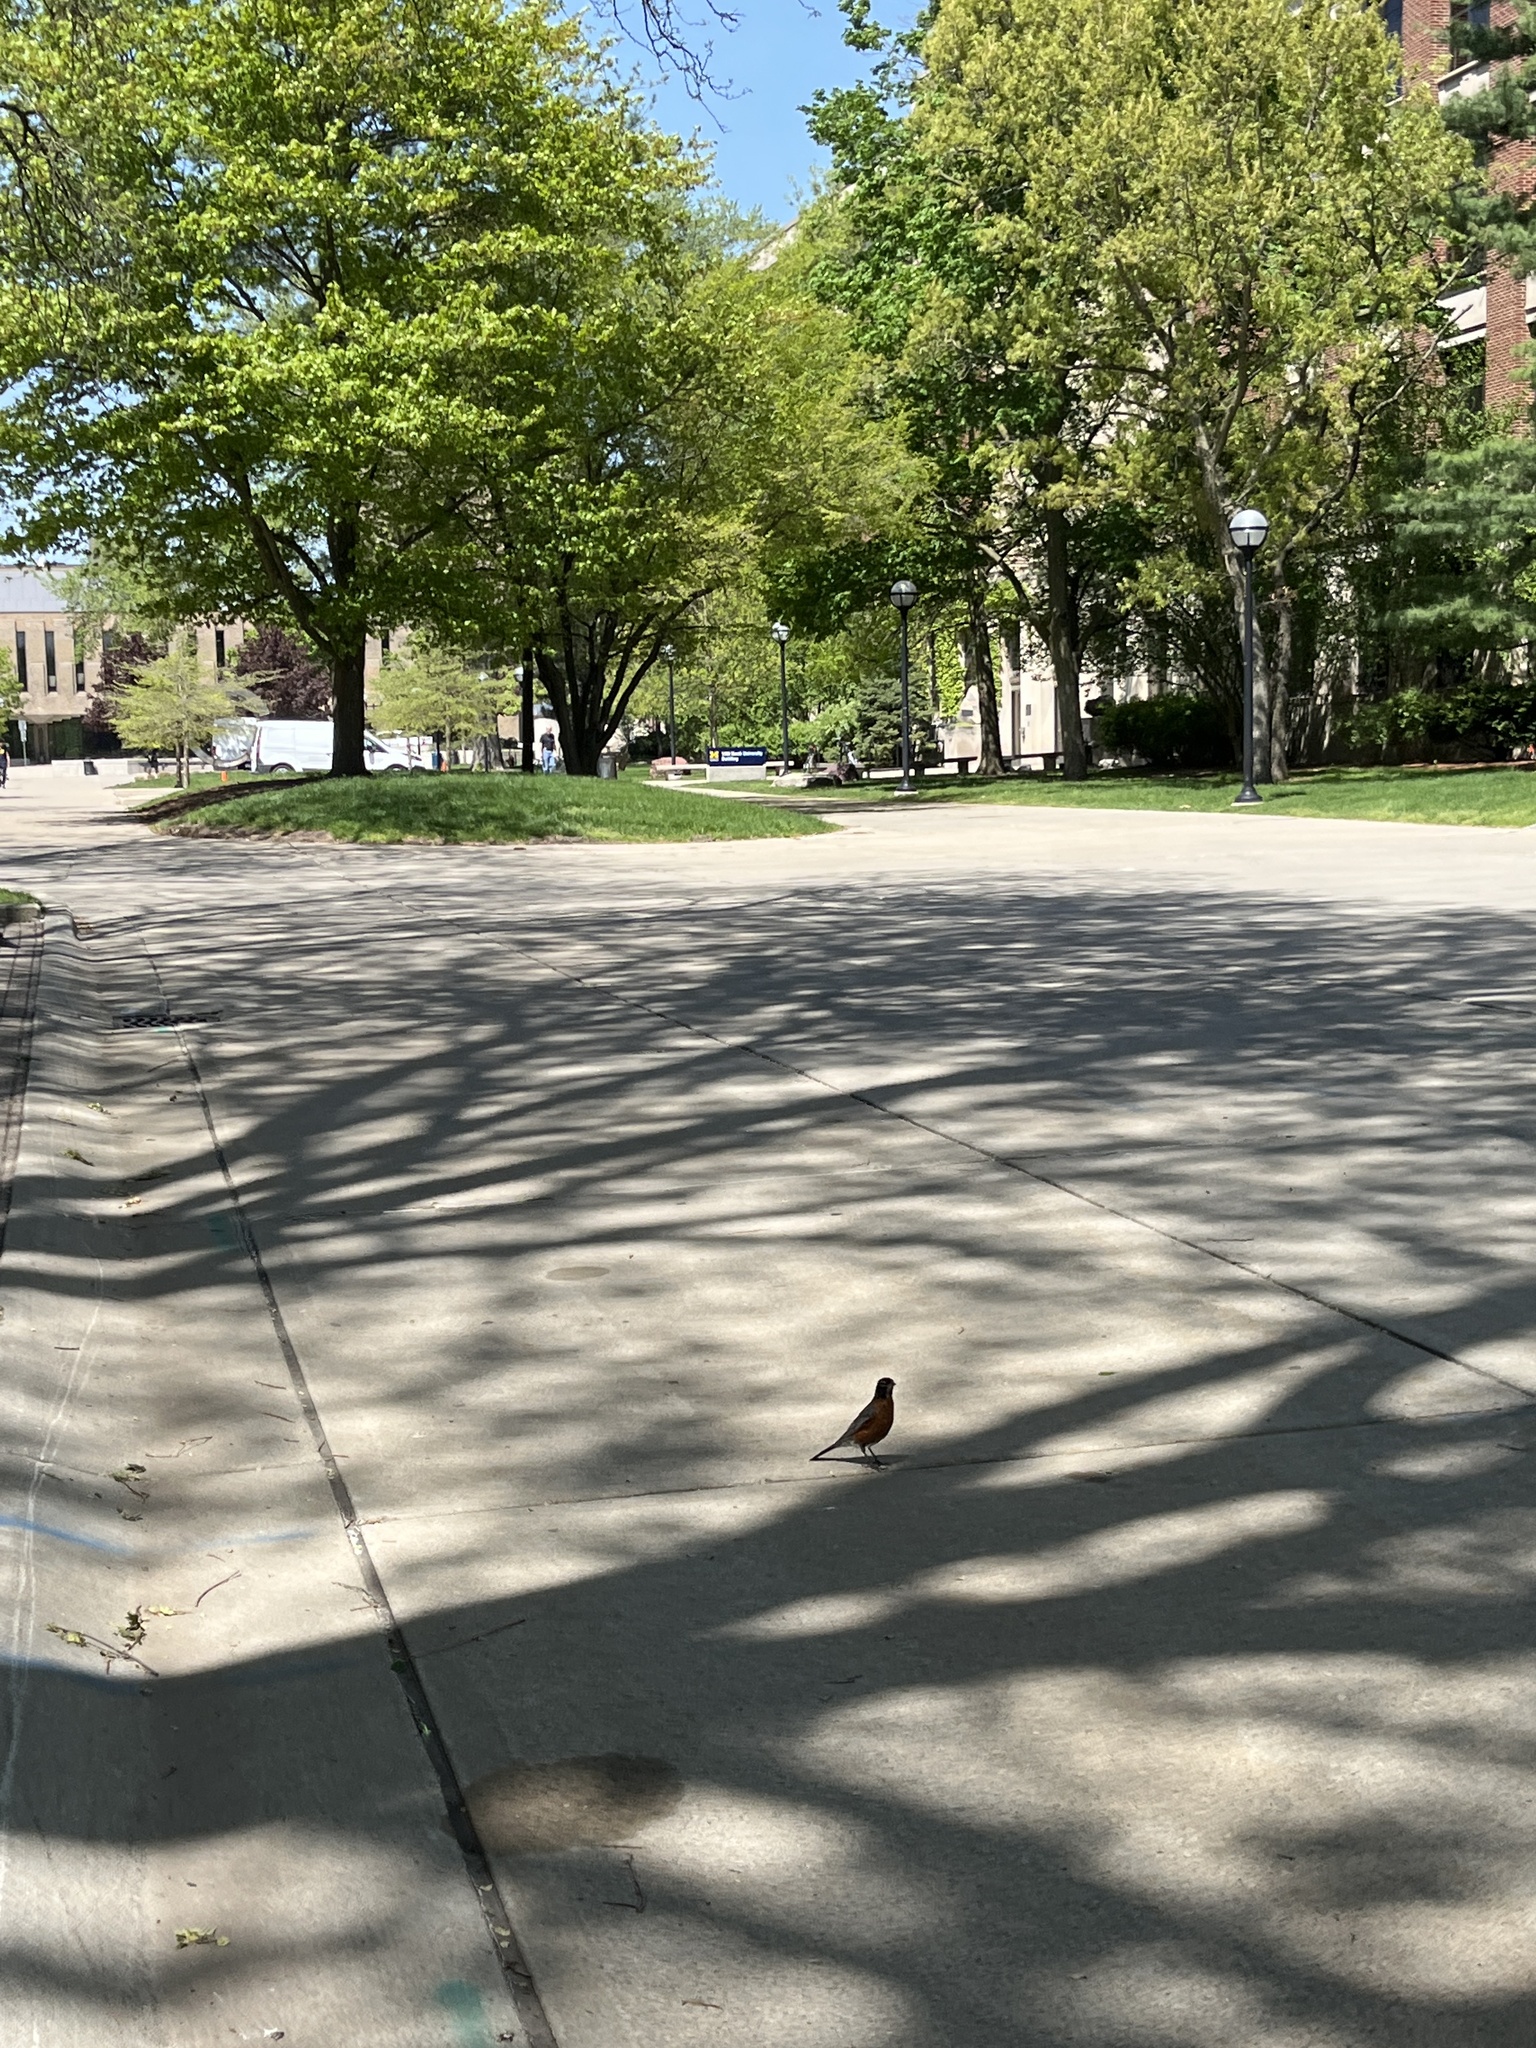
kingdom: Animalia
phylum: Chordata
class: Aves
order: Passeriformes
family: Turdidae
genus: Turdus
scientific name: Turdus migratorius
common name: American robin
